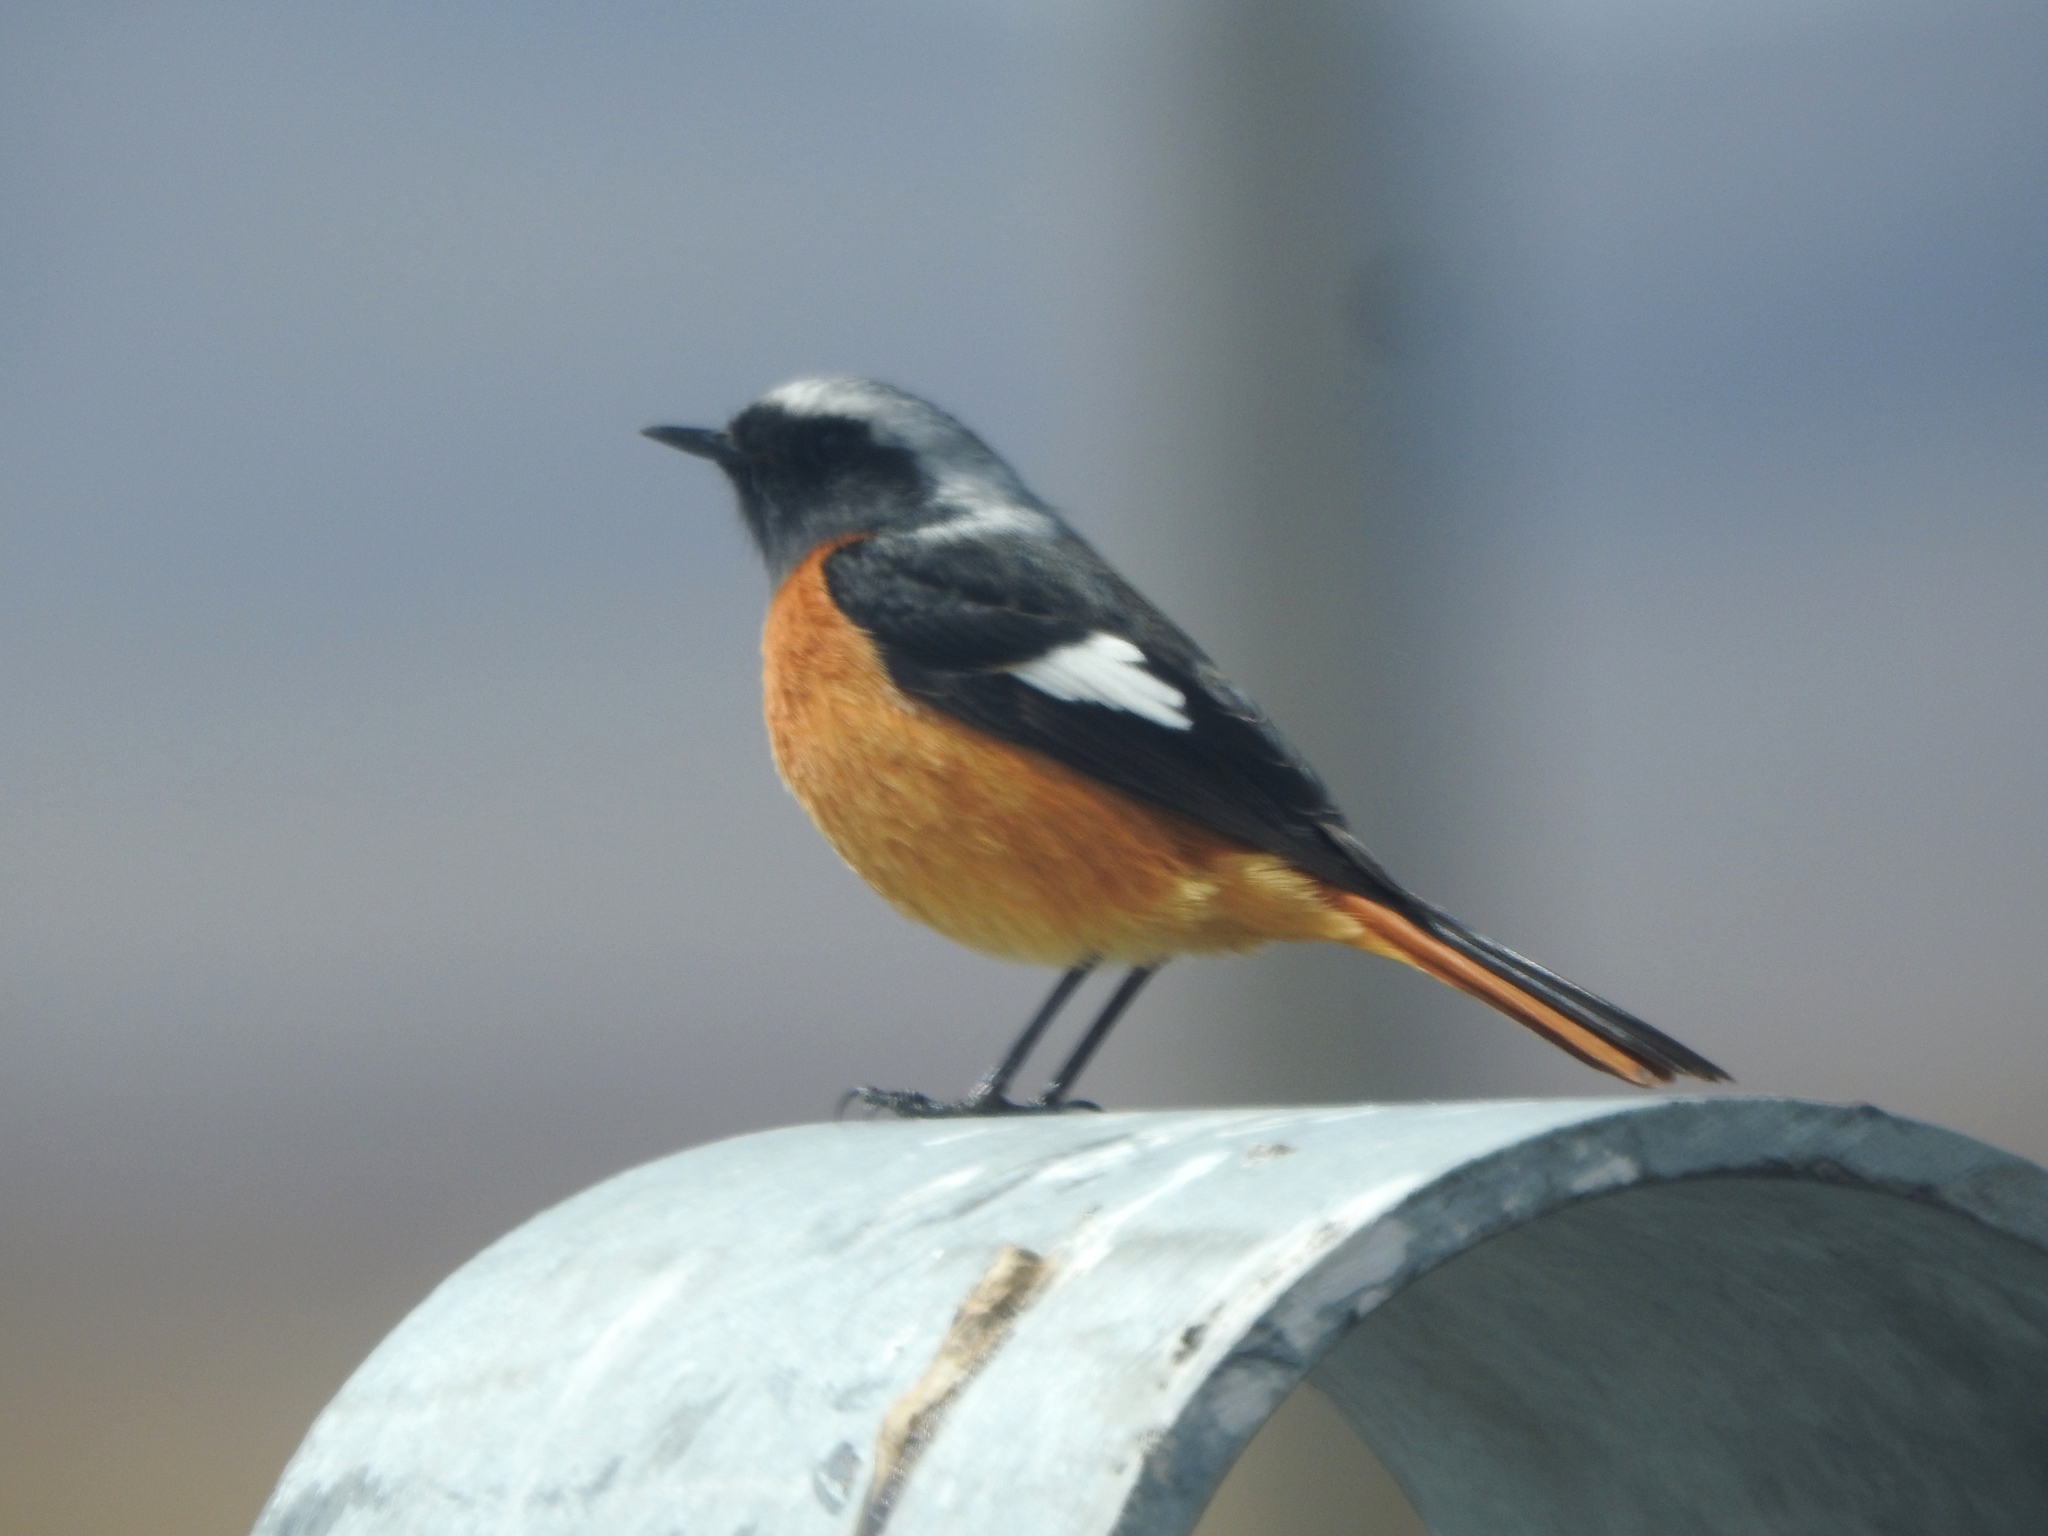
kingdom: Animalia
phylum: Chordata
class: Aves
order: Passeriformes
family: Muscicapidae
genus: Phoenicurus
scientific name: Phoenicurus auroreus
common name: Daurian redstart
